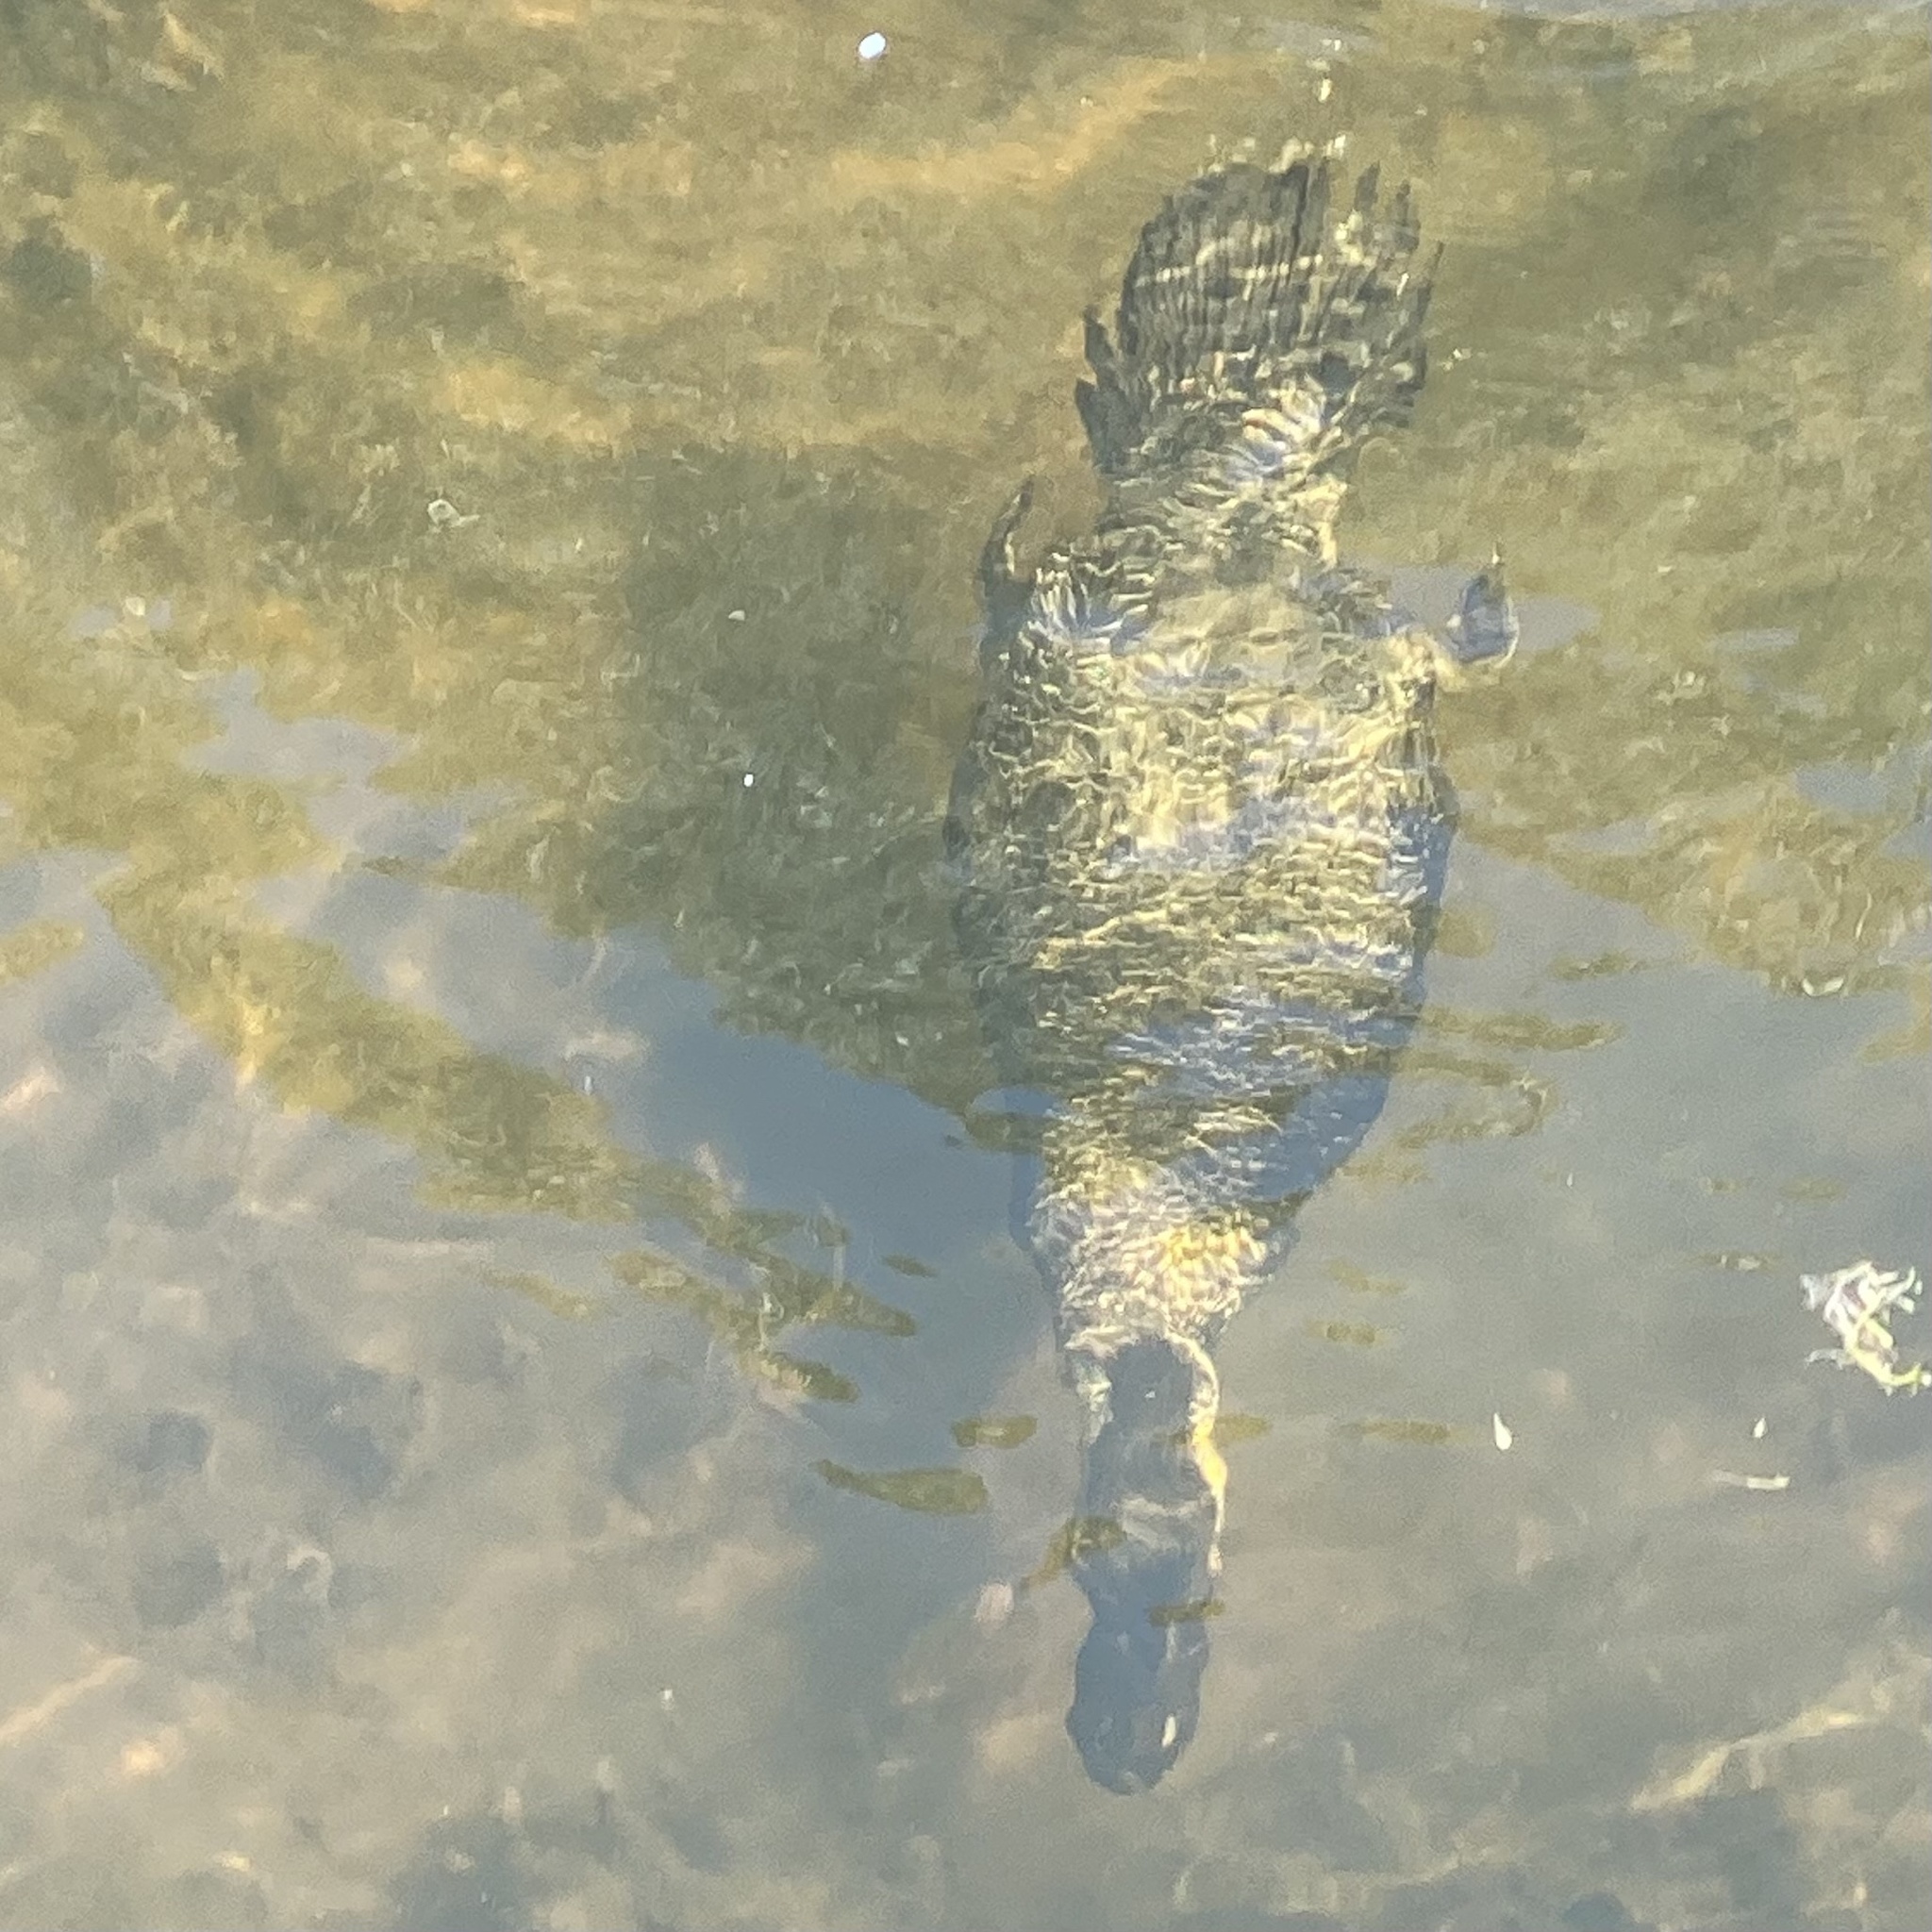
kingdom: Animalia
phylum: Chordata
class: Aves
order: Anseriformes
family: Anatidae
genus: Biziura
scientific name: Biziura lobata
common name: Musk duck
